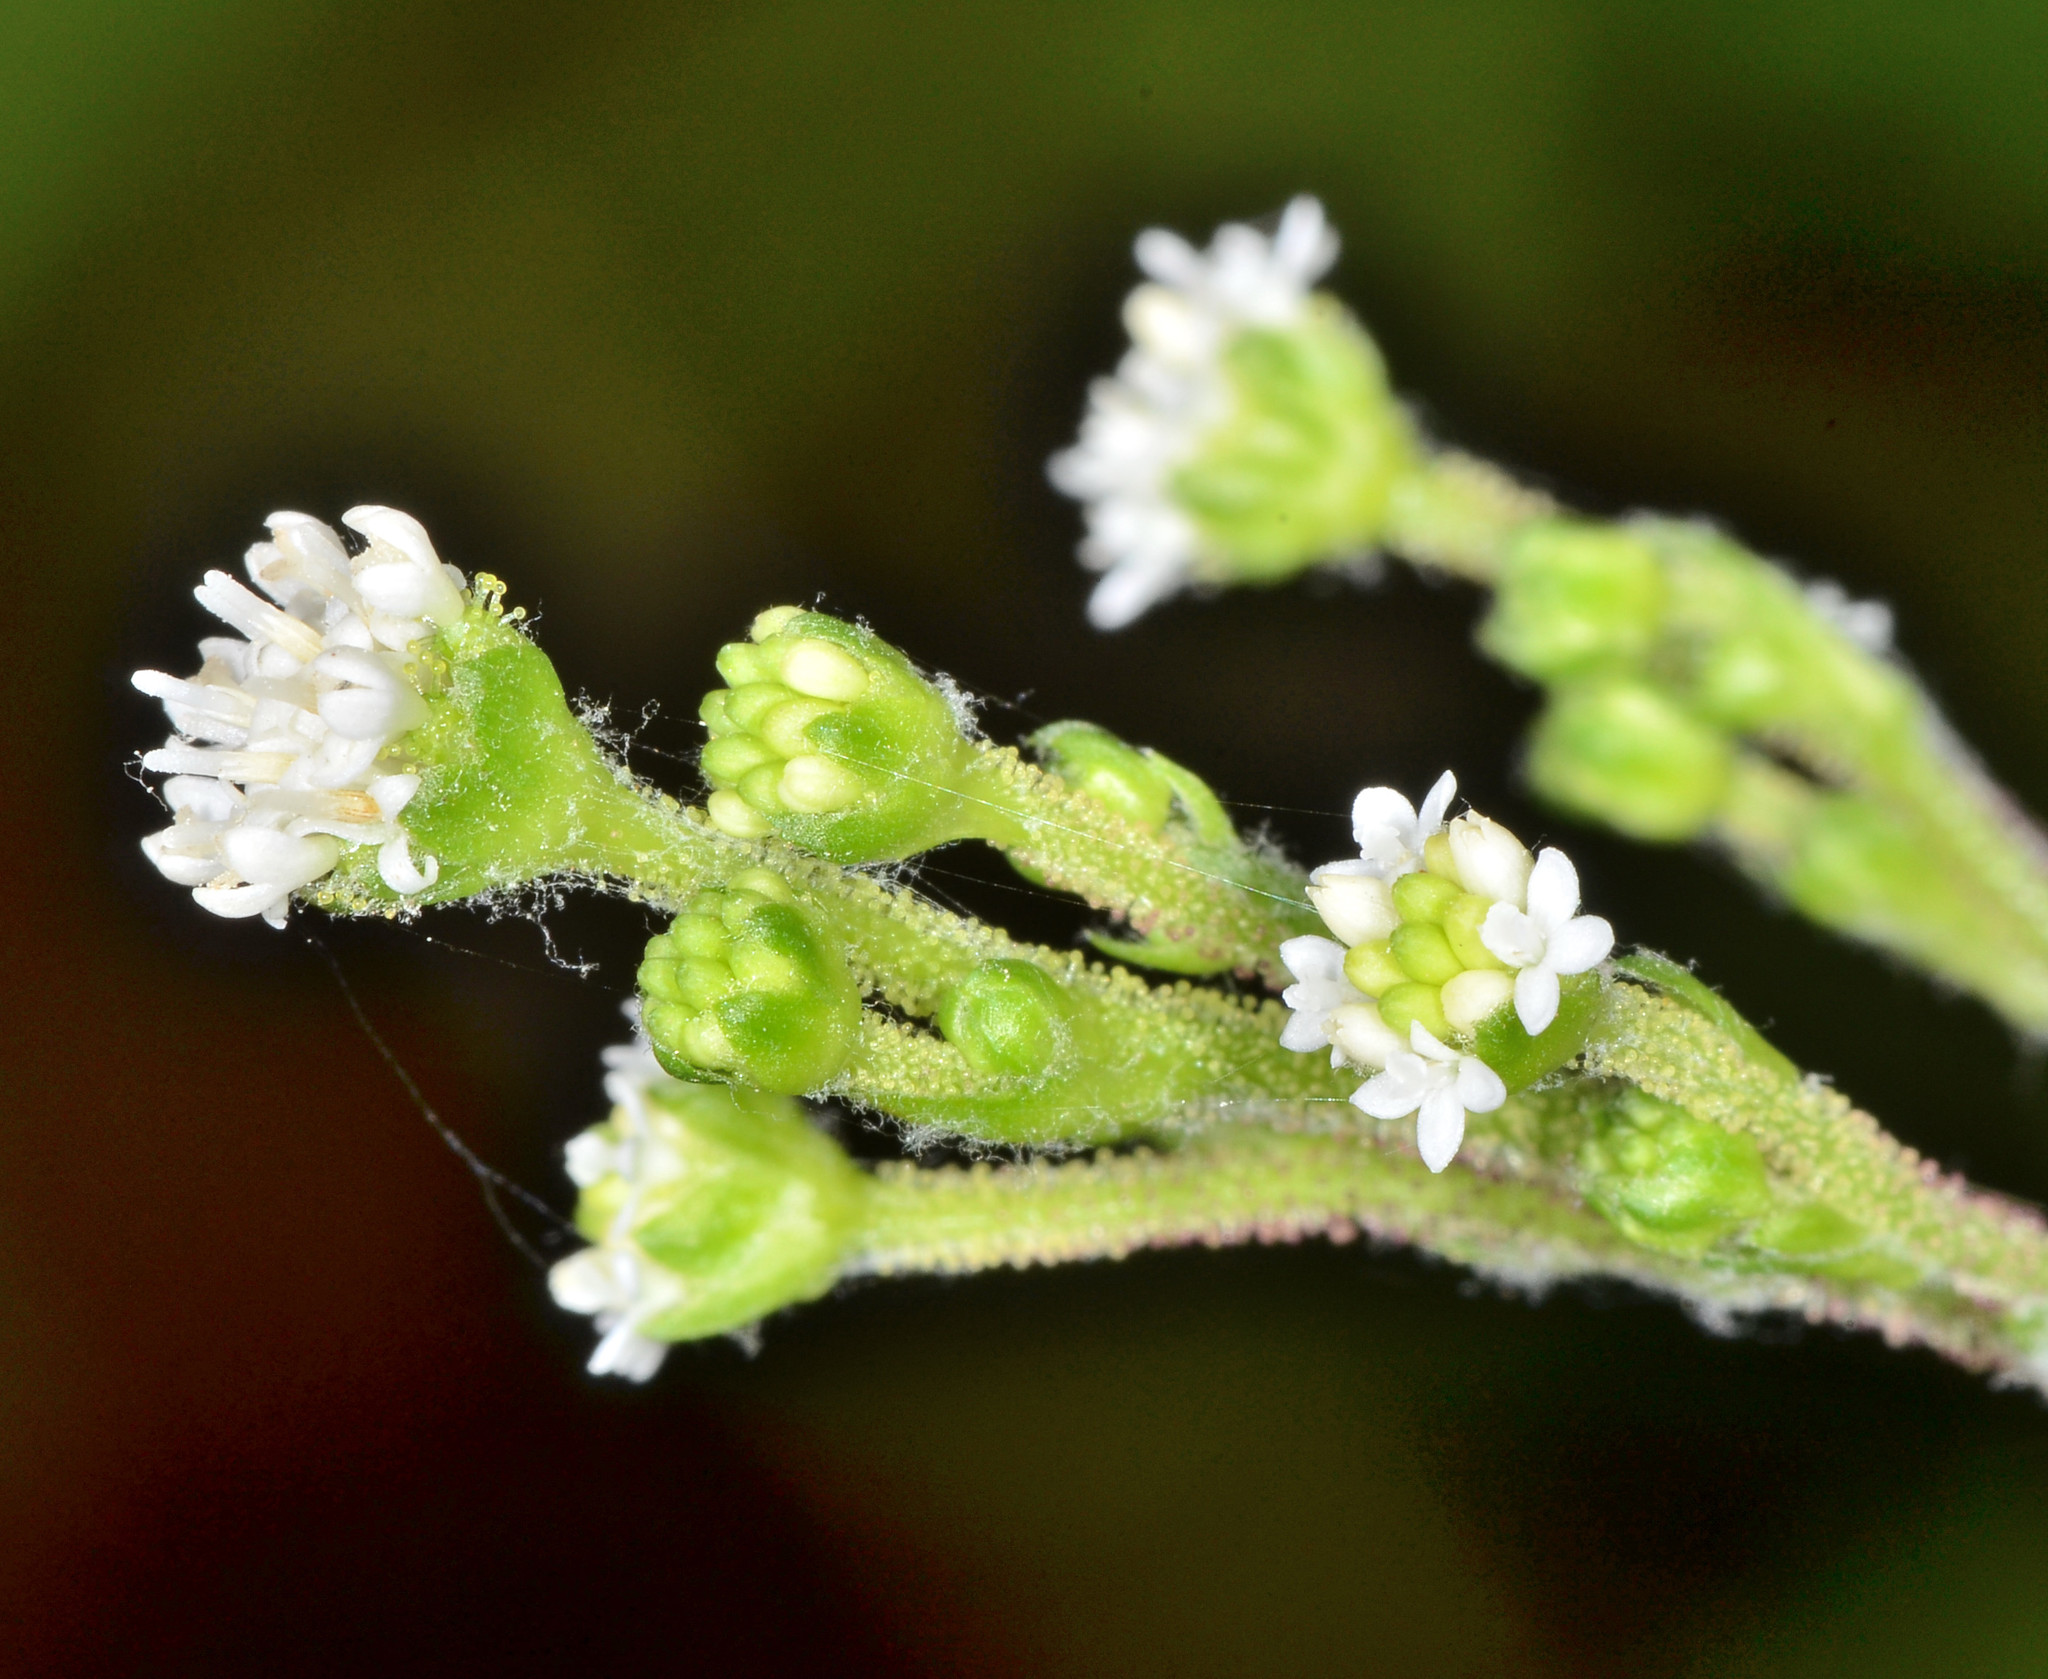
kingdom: Plantae
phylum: Tracheophyta
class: Magnoliopsida
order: Asterales
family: Asteraceae
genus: Adenocaulon
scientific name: Adenocaulon bicolor
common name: Trailplant
